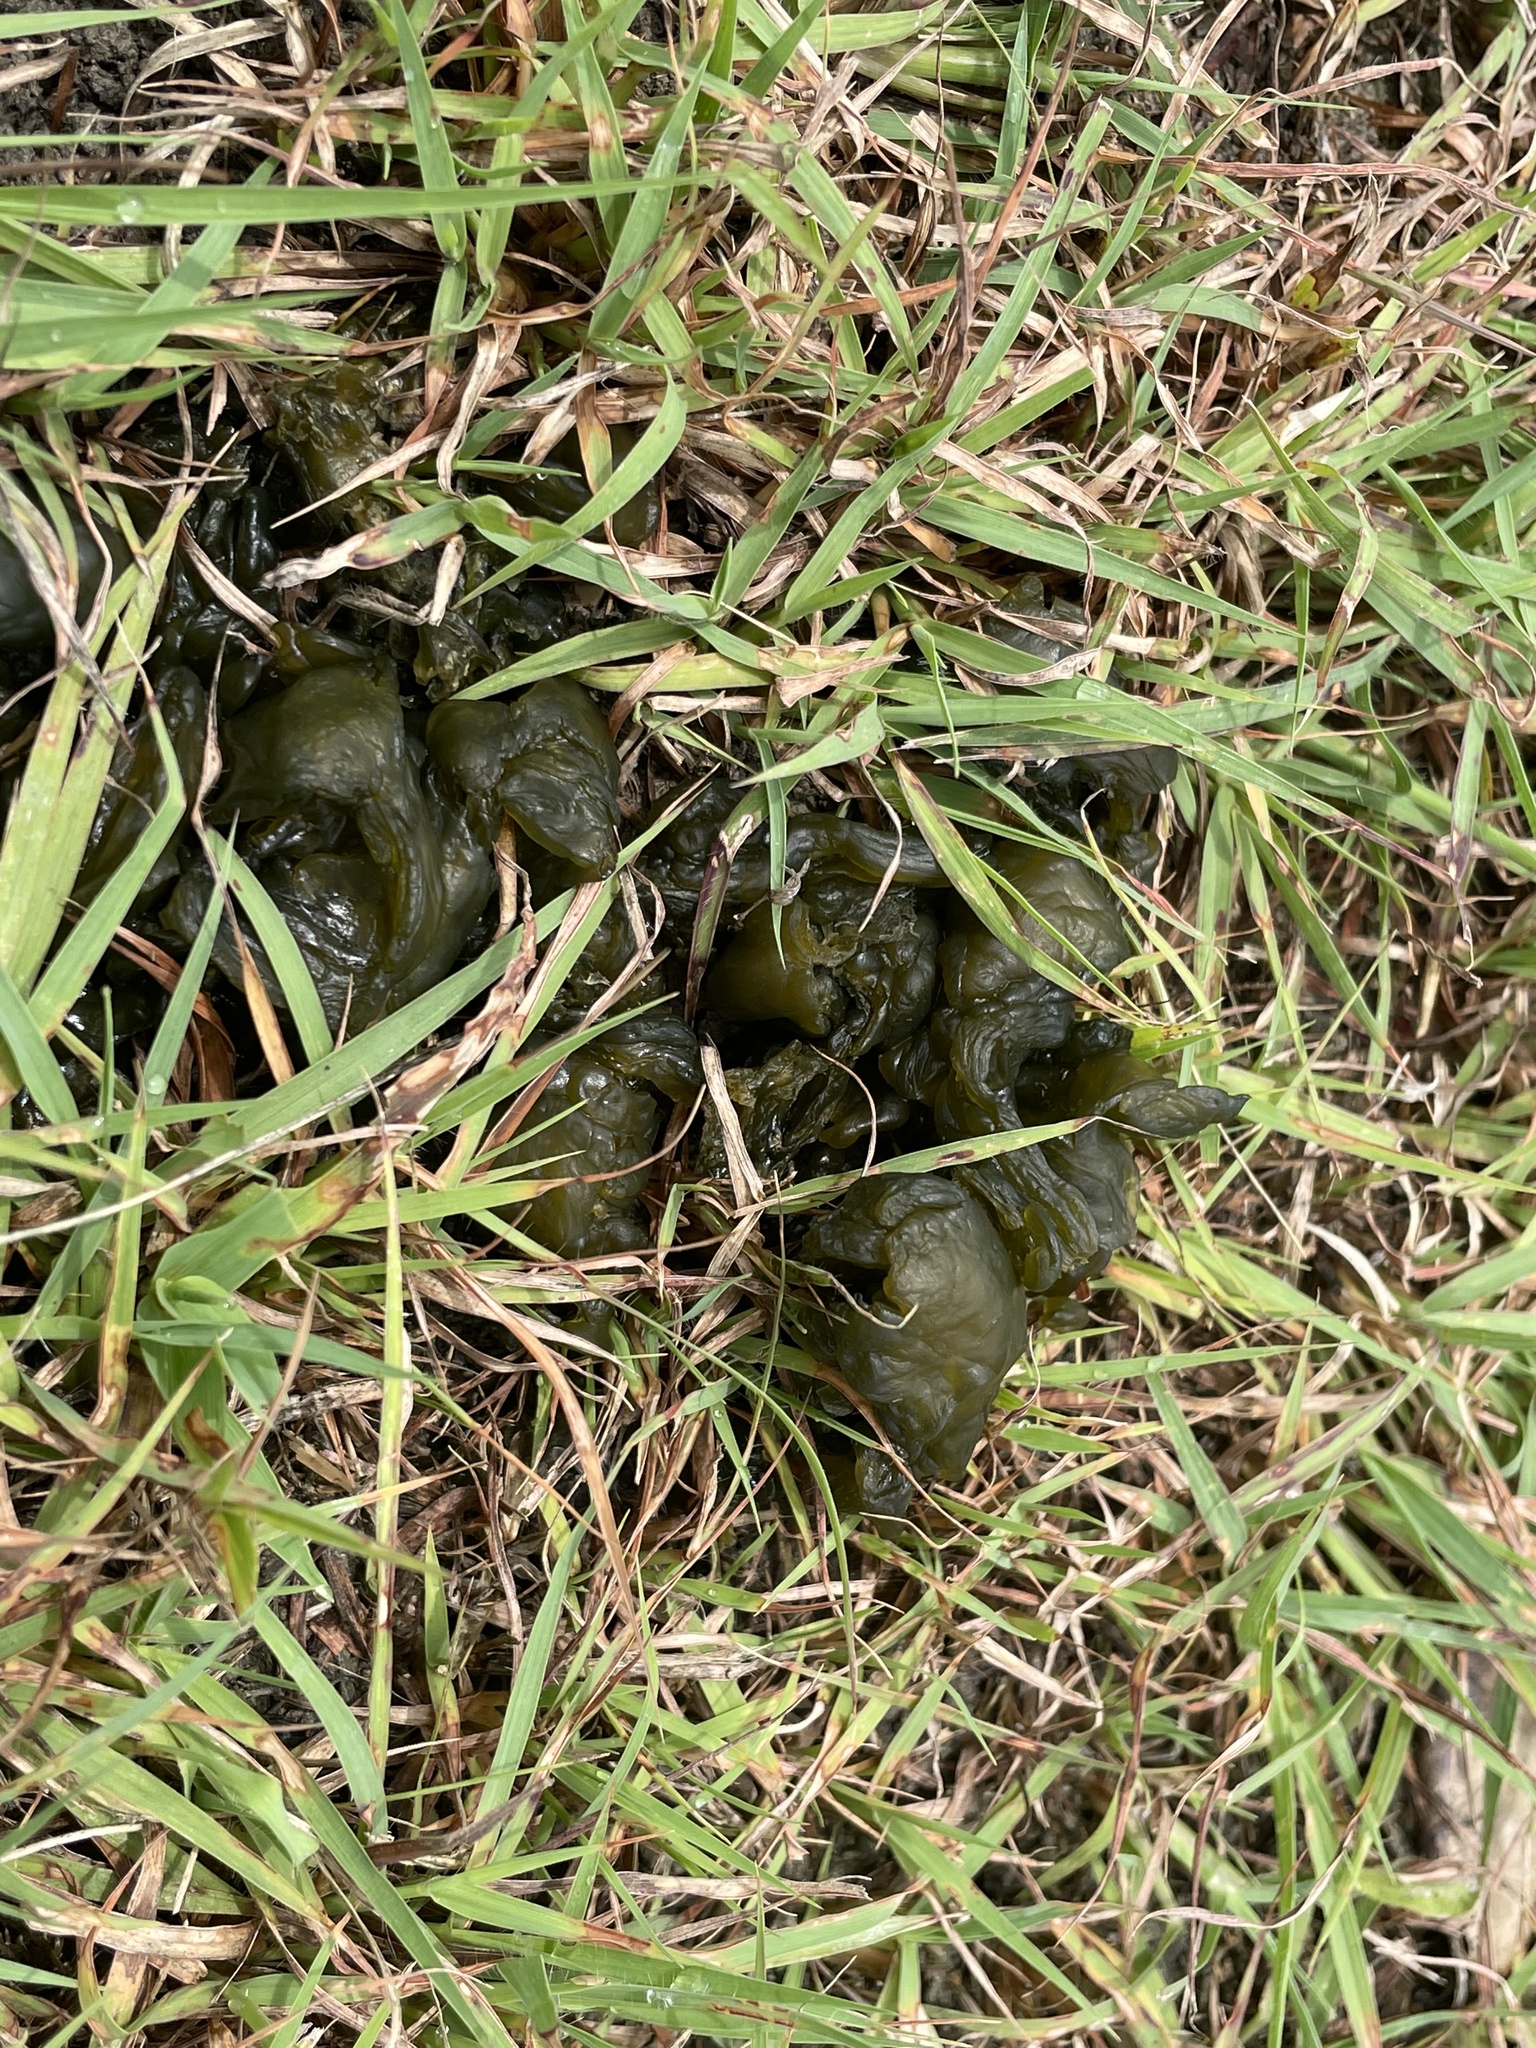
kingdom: Bacteria
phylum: Cyanobacteria
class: Cyanobacteriia
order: Cyanobacteriales
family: Nostocaceae
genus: Nostoc
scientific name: Nostoc commune
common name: Star jelly
